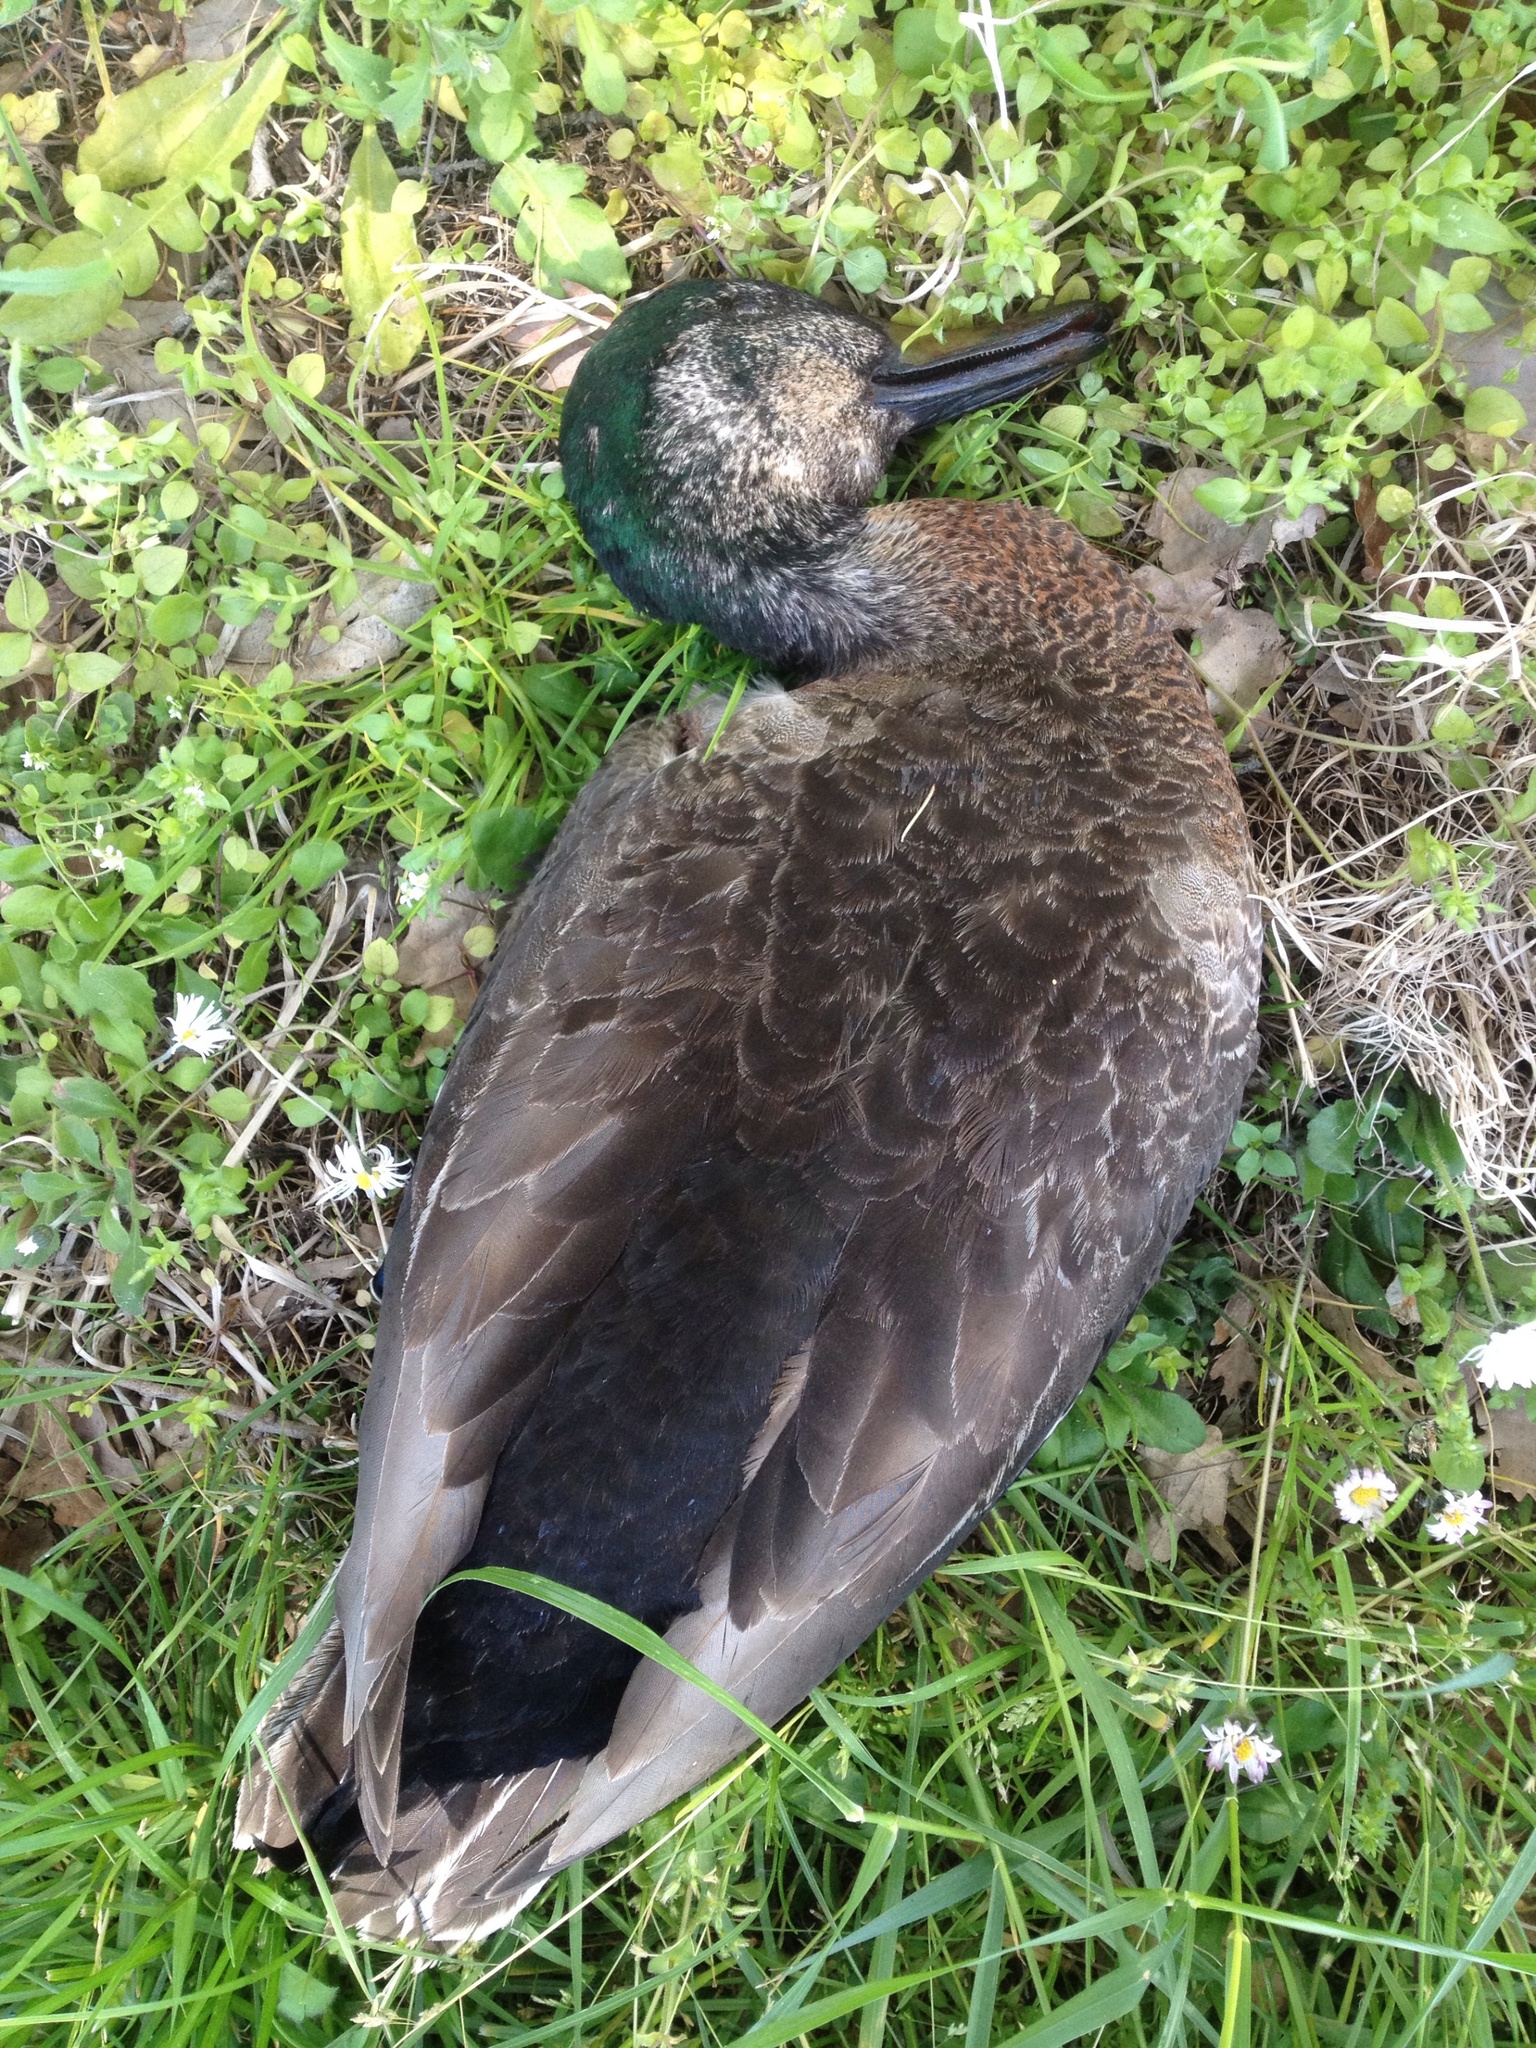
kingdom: Animalia
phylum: Chordata
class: Aves
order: Anseriformes
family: Anatidae
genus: Anas
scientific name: Anas
